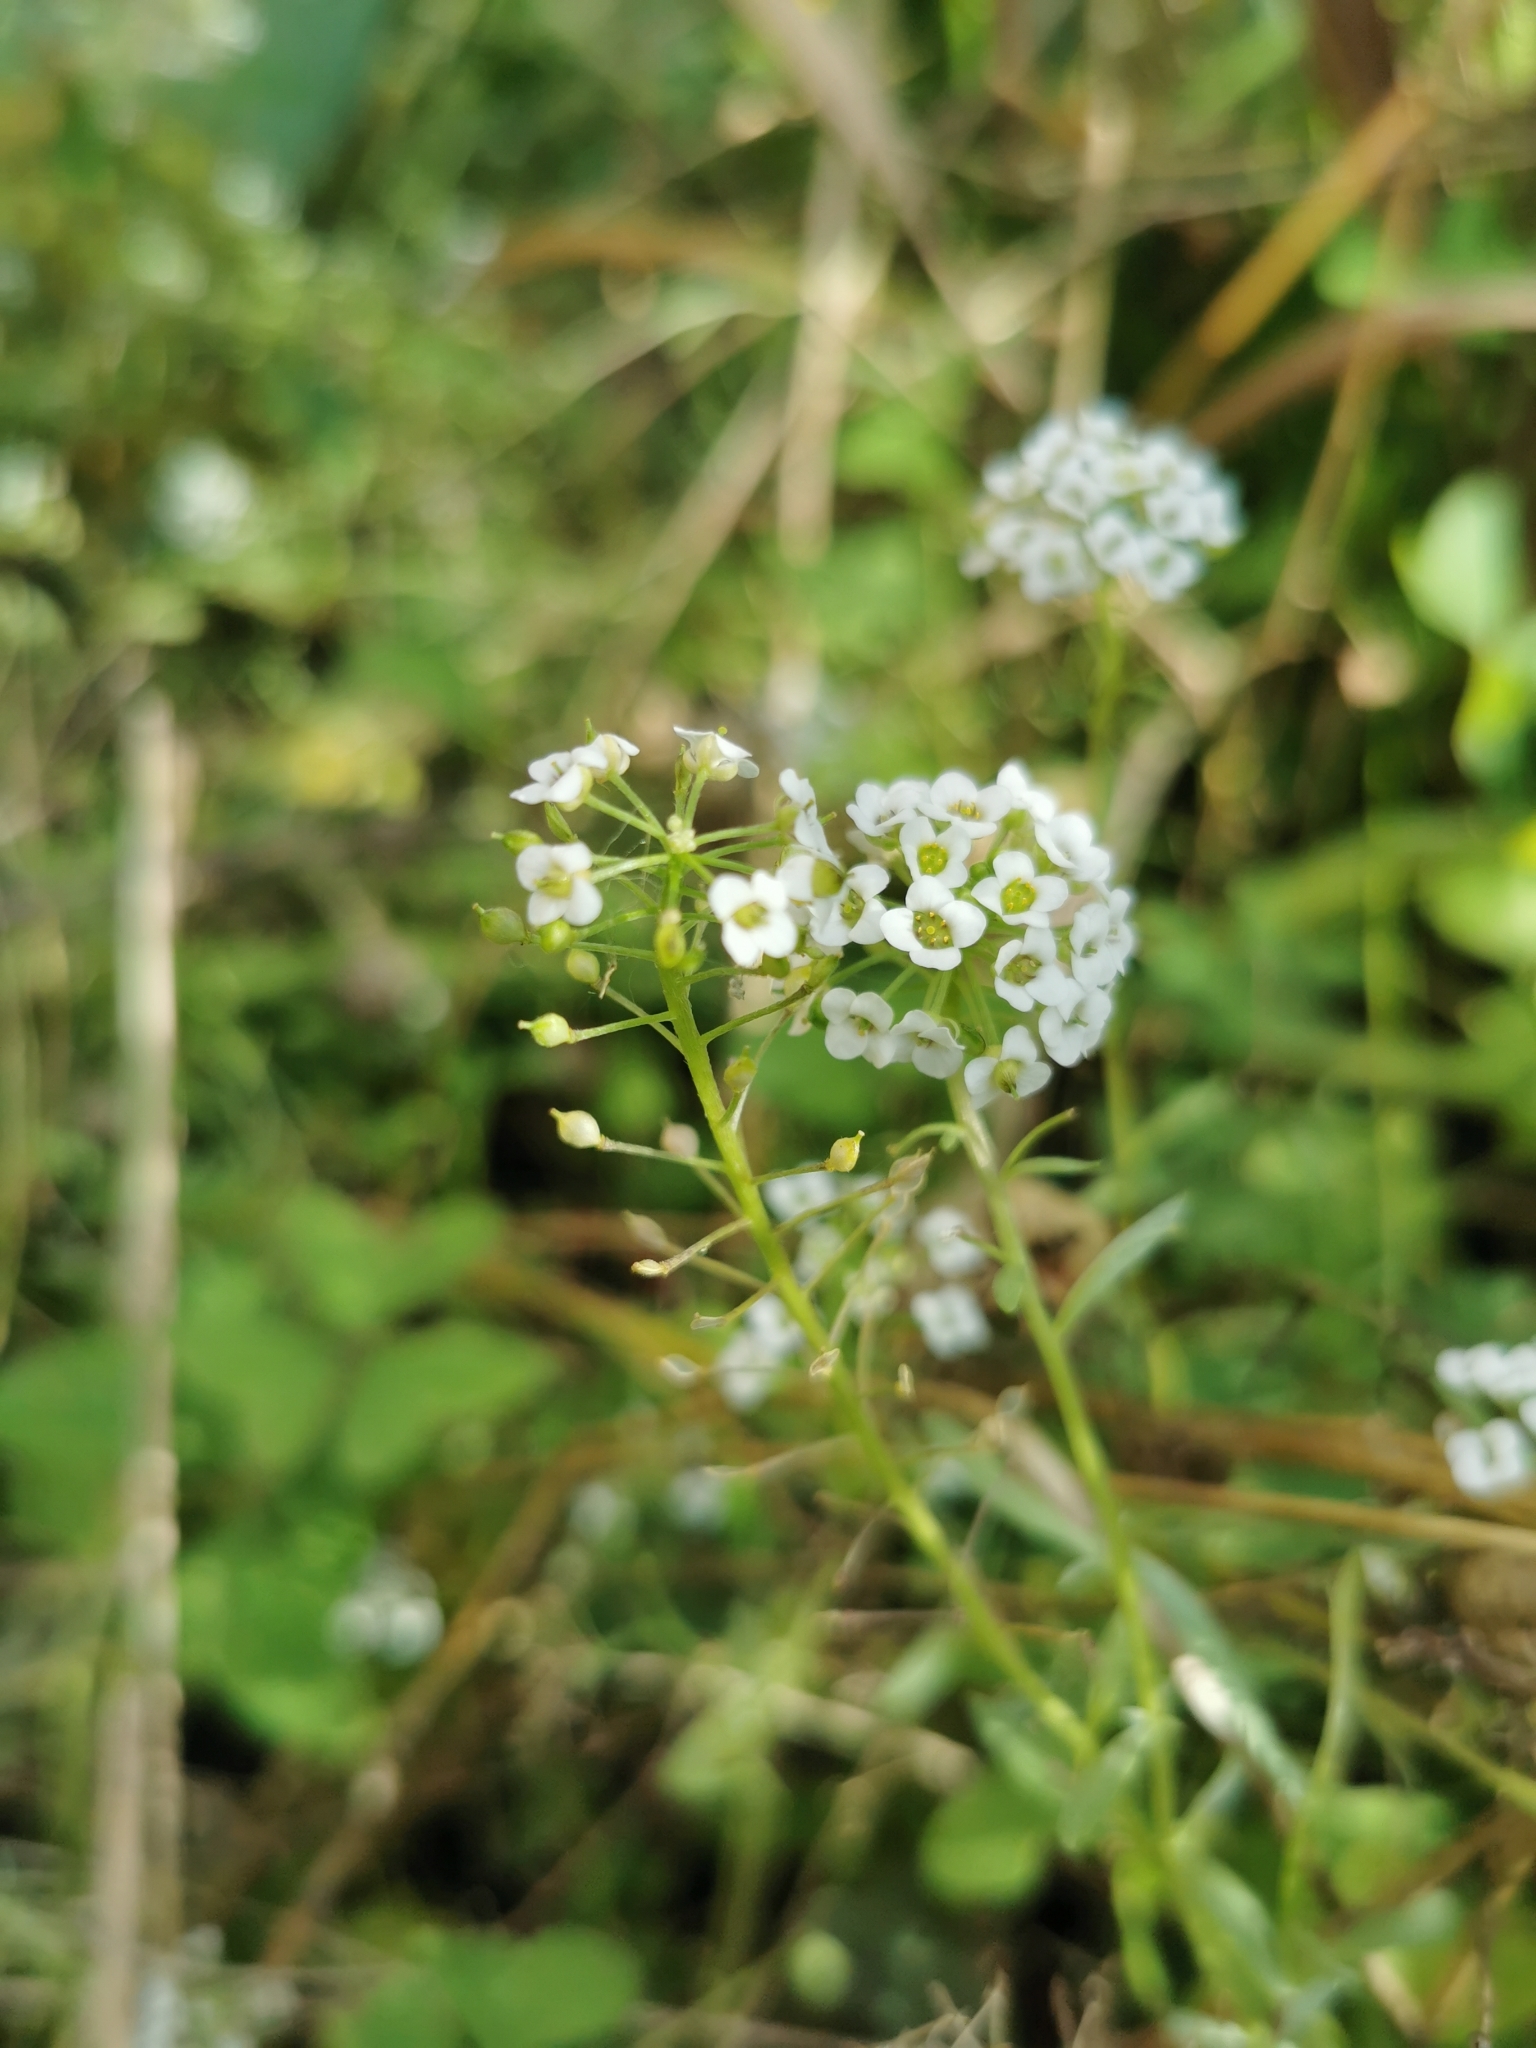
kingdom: Plantae
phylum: Tracheophyta
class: Magnoliopsida
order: Brassicales
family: Brassicaceae
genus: Lobularia
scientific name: Lobularia maritima
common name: Sweet alison
